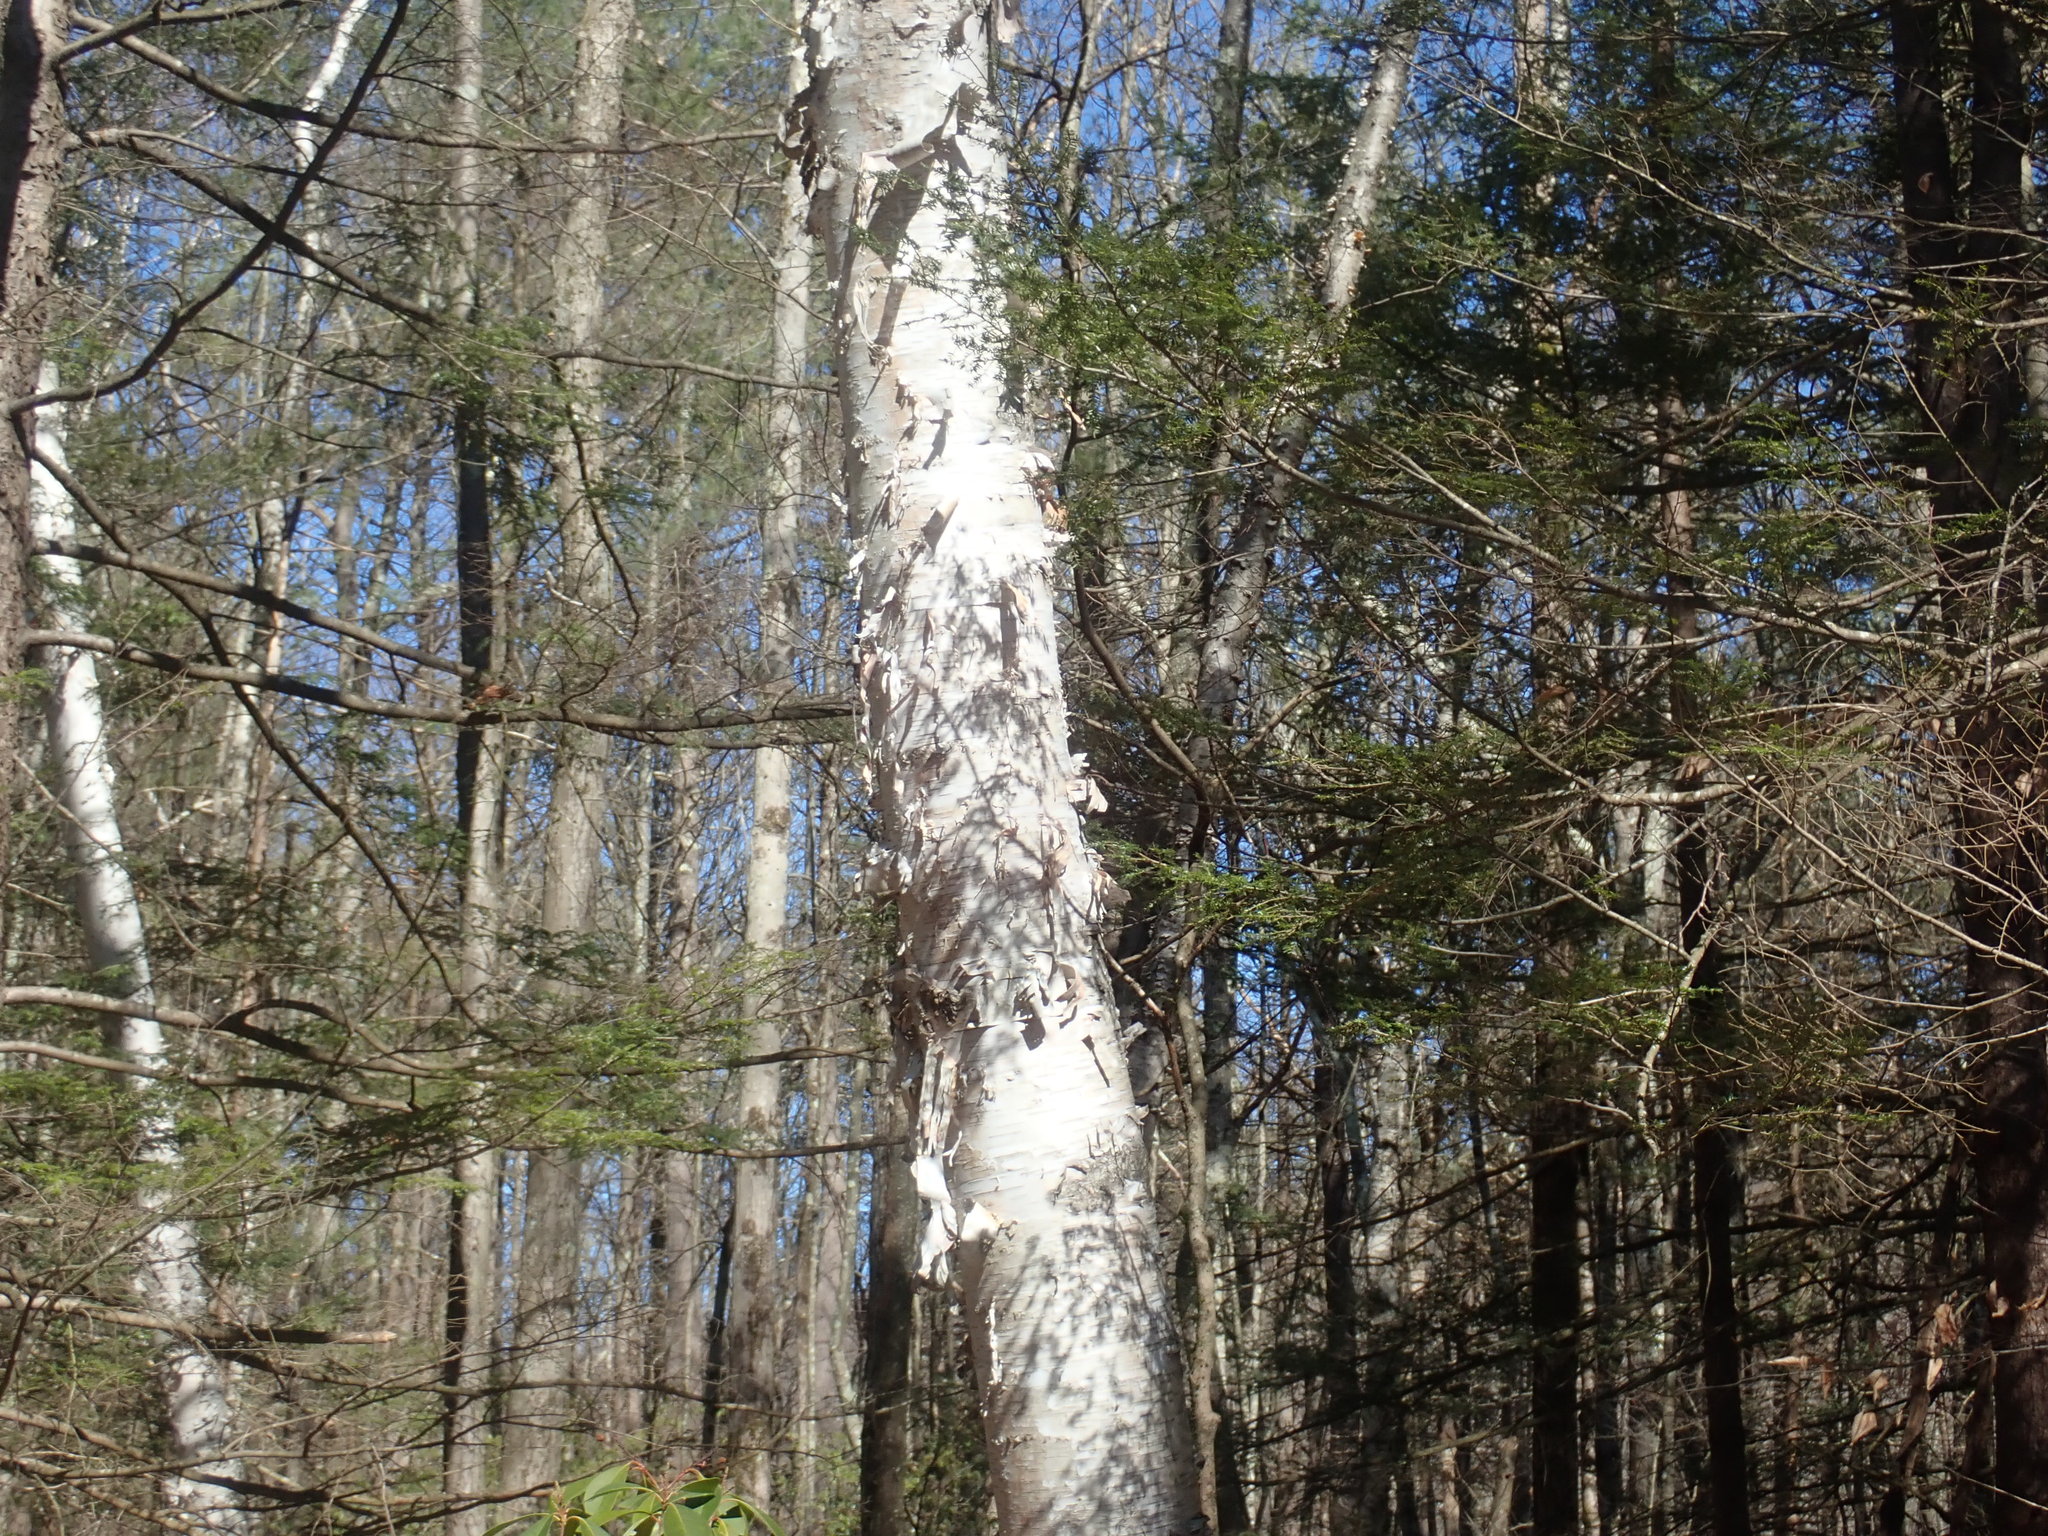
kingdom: Plantae
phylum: Tracheophyta
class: Magnoliopsida
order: Fagales
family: Betulaceae
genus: Betula
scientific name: Betula papyrifera
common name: Paper birch
